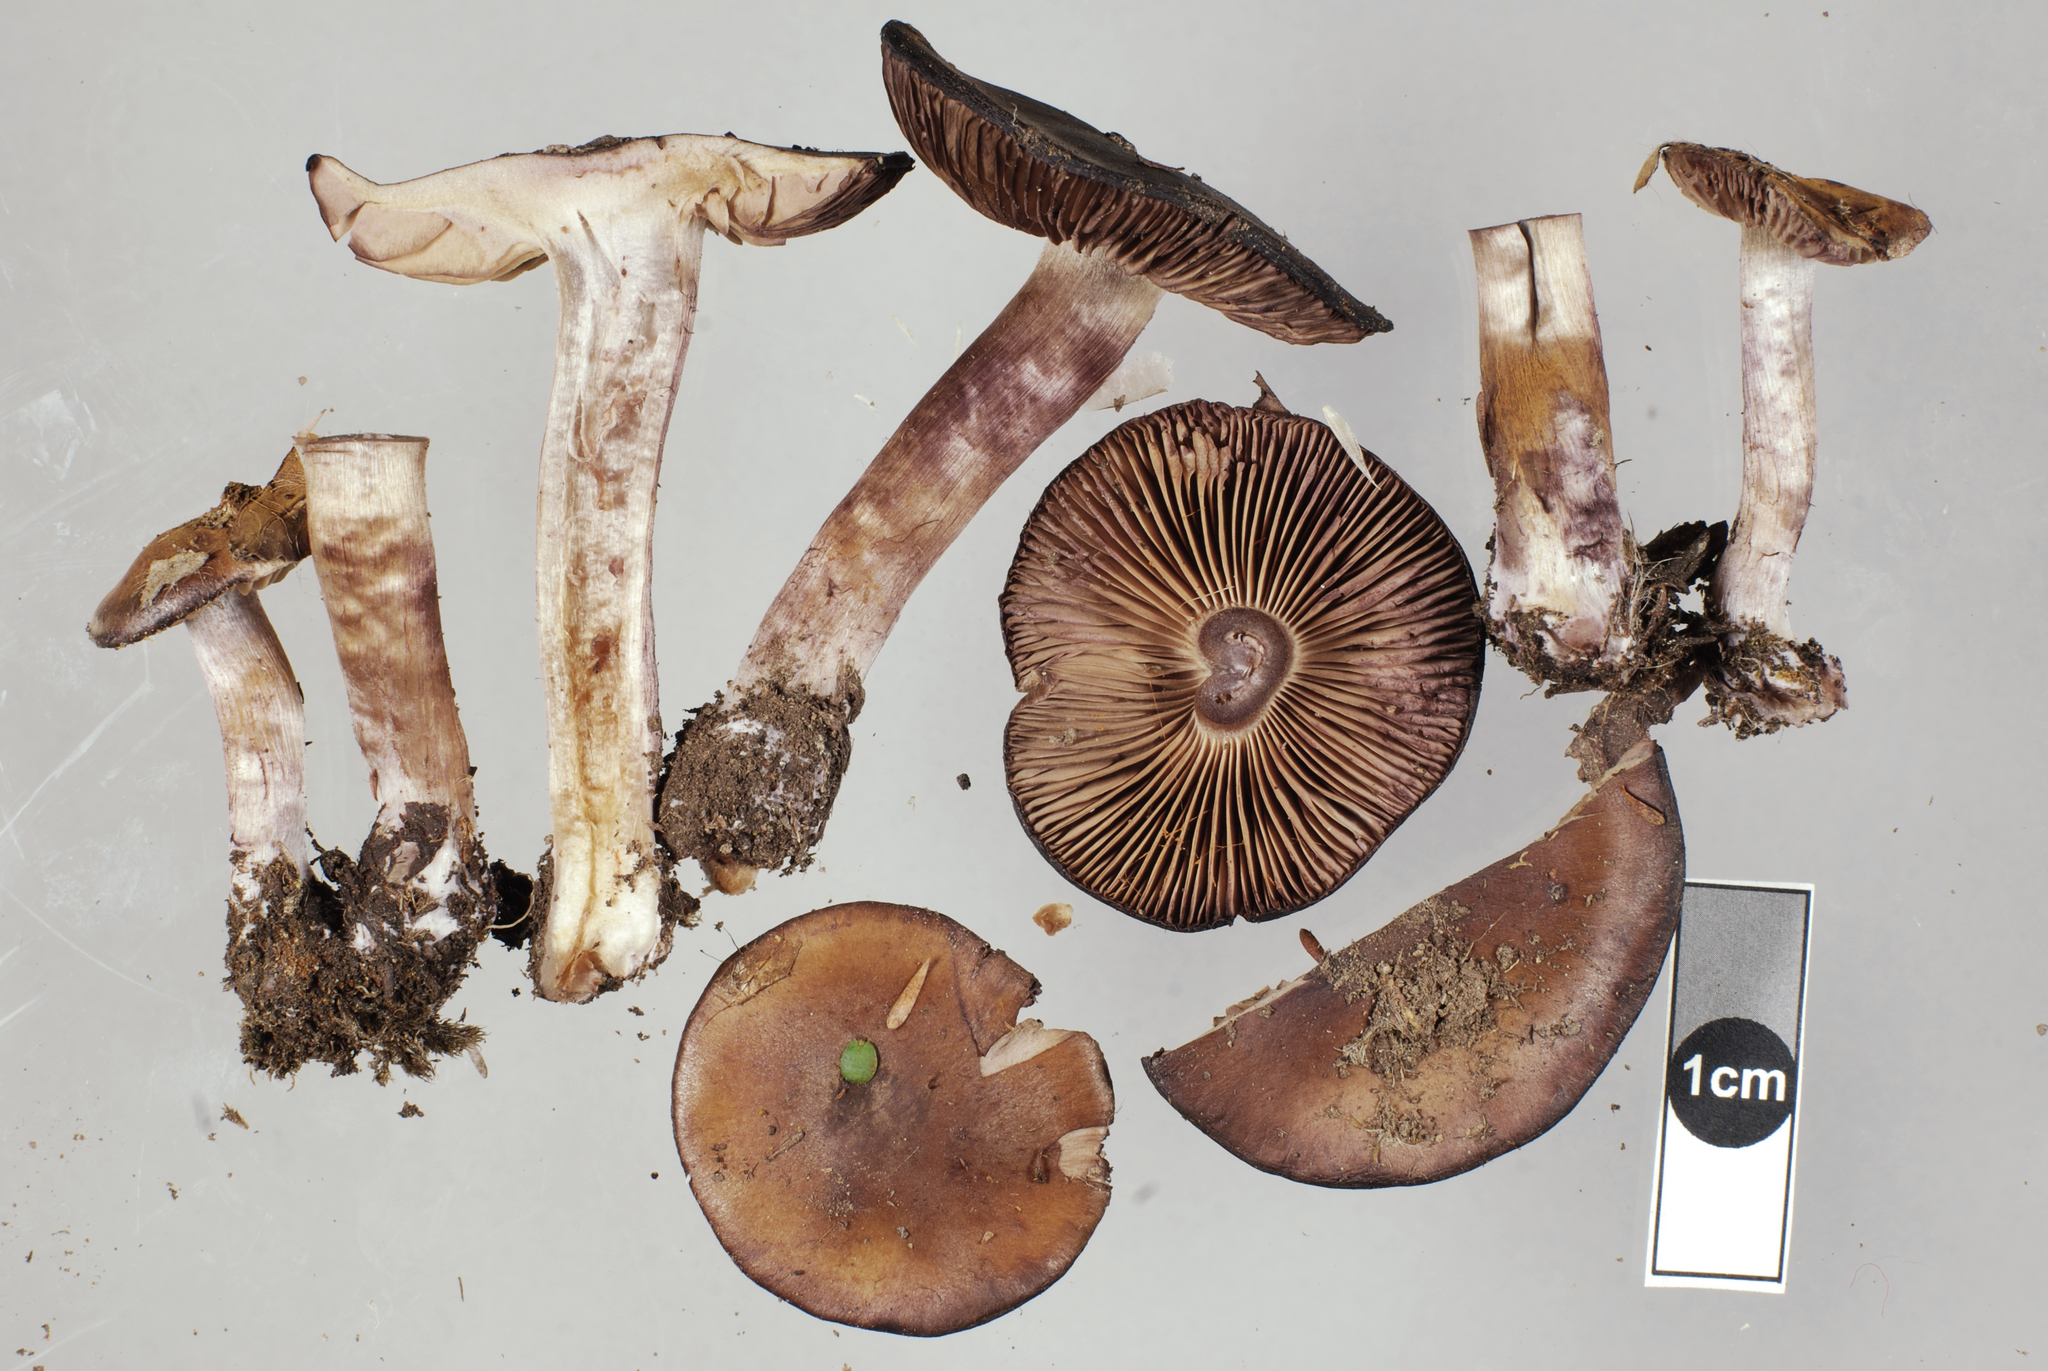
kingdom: Fungi
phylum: Basidiomycota
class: Agaricomycetes
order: Agaricales
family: Cortinariaceae
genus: Thaxterogaster
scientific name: Thaxterogaster australis
